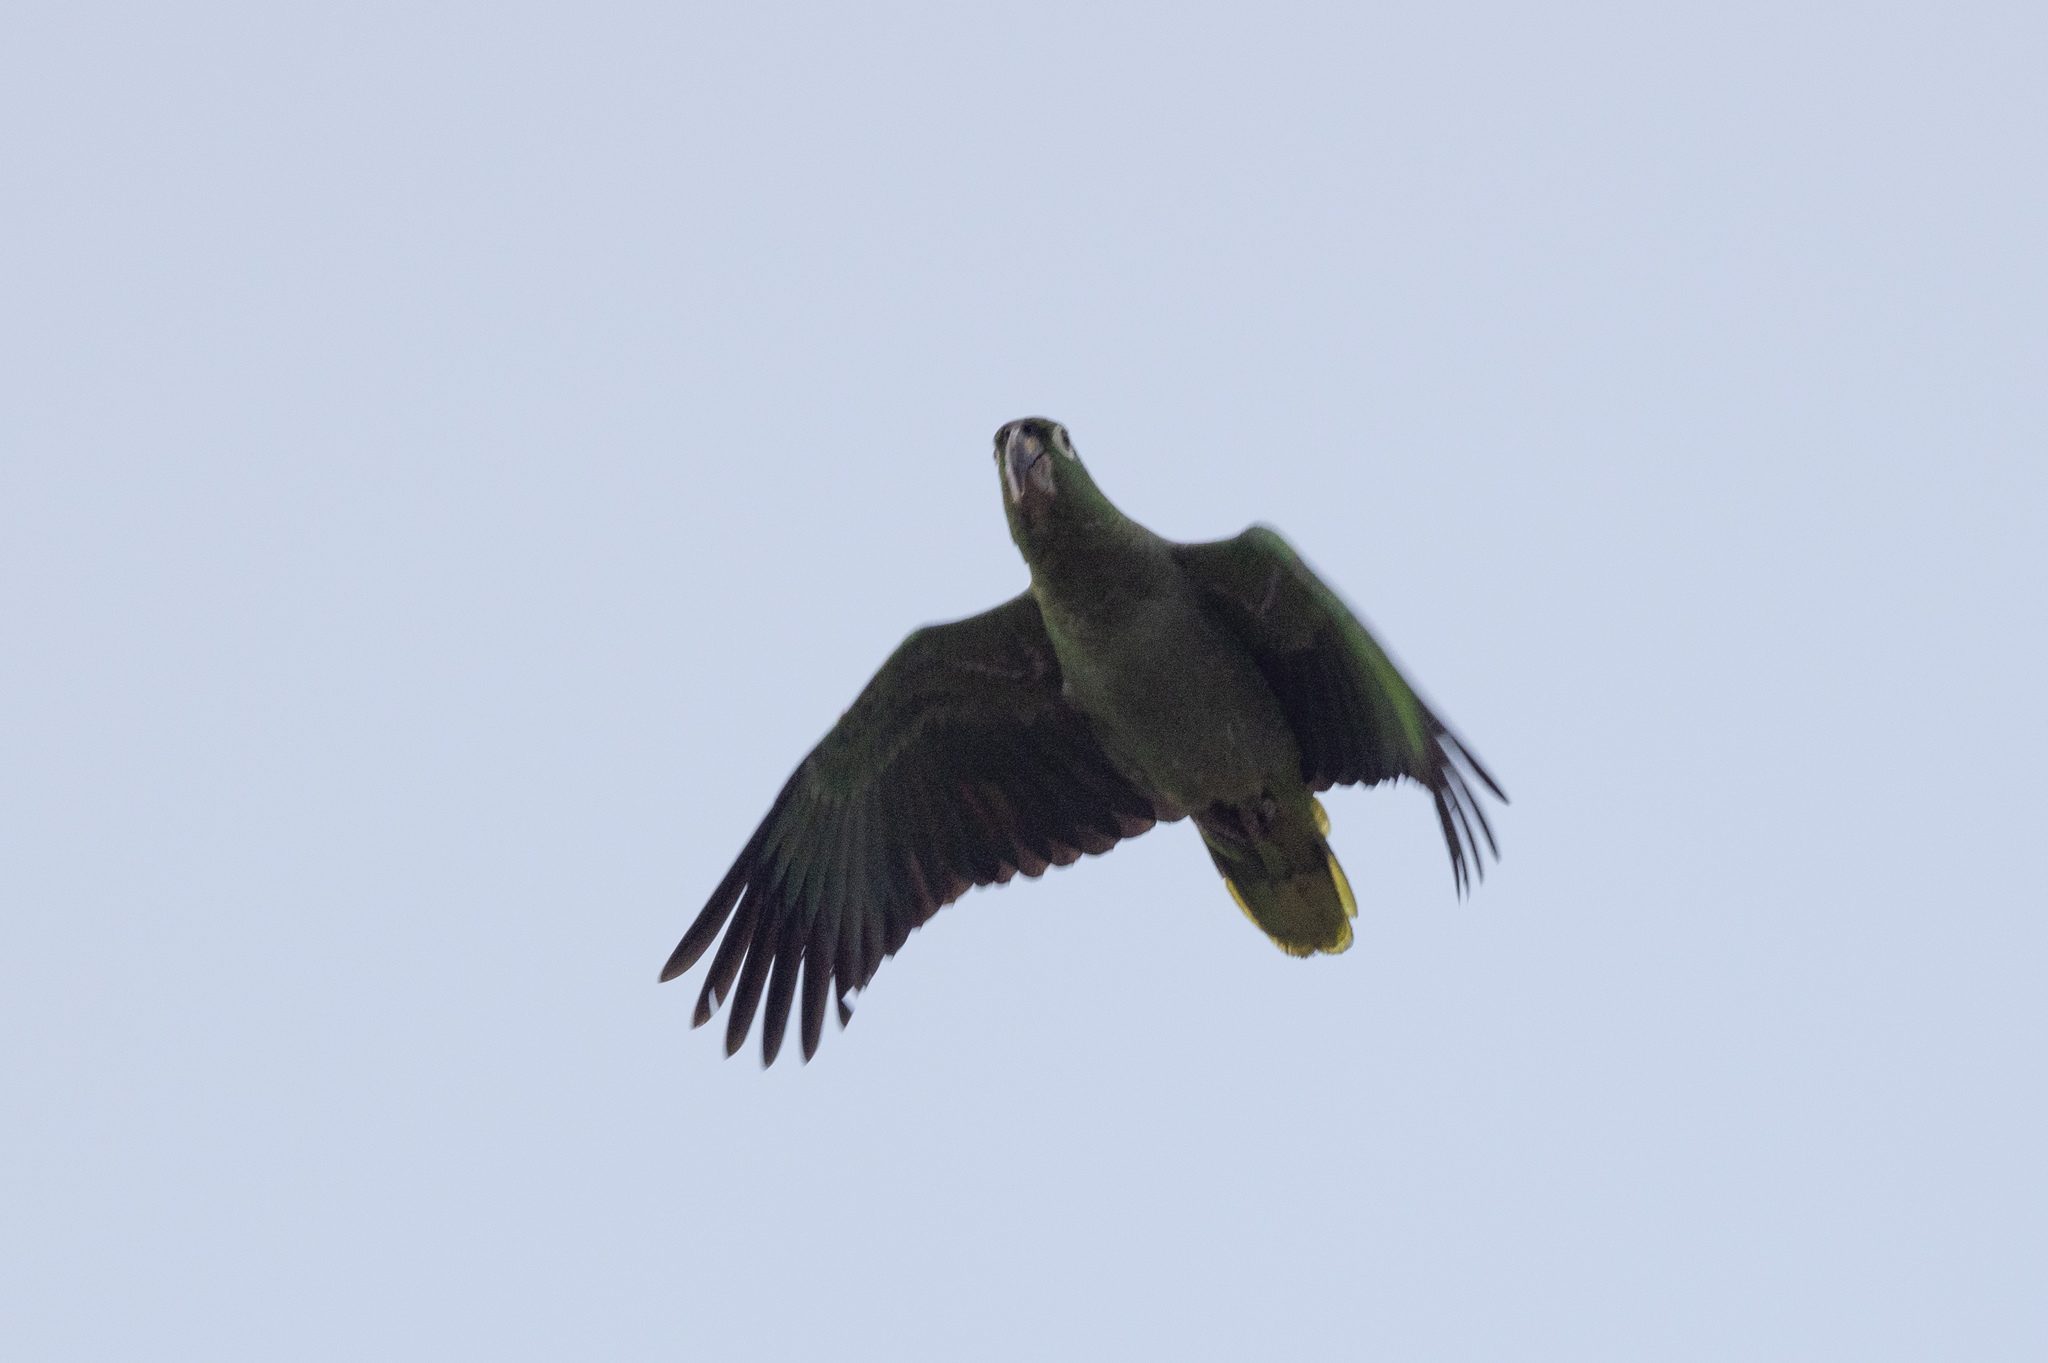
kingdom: Animalia
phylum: Chordata
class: Aves
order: Psittaciformes
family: Psittacidae
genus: Amazona
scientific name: Amazona autumnalis
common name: Red-lored amazon
